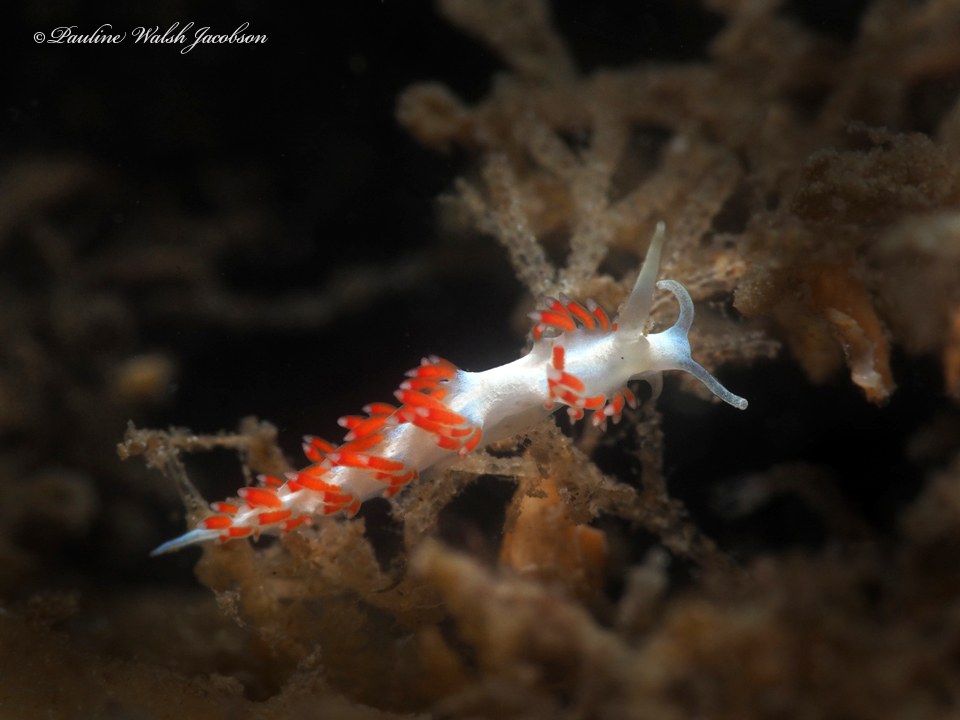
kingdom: Animalia
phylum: Mollusca
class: Gastropoda
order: Nudibranchia
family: Flabellinidae
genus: Flabellina
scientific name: Flabellina dushia
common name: Dushia flabellina
